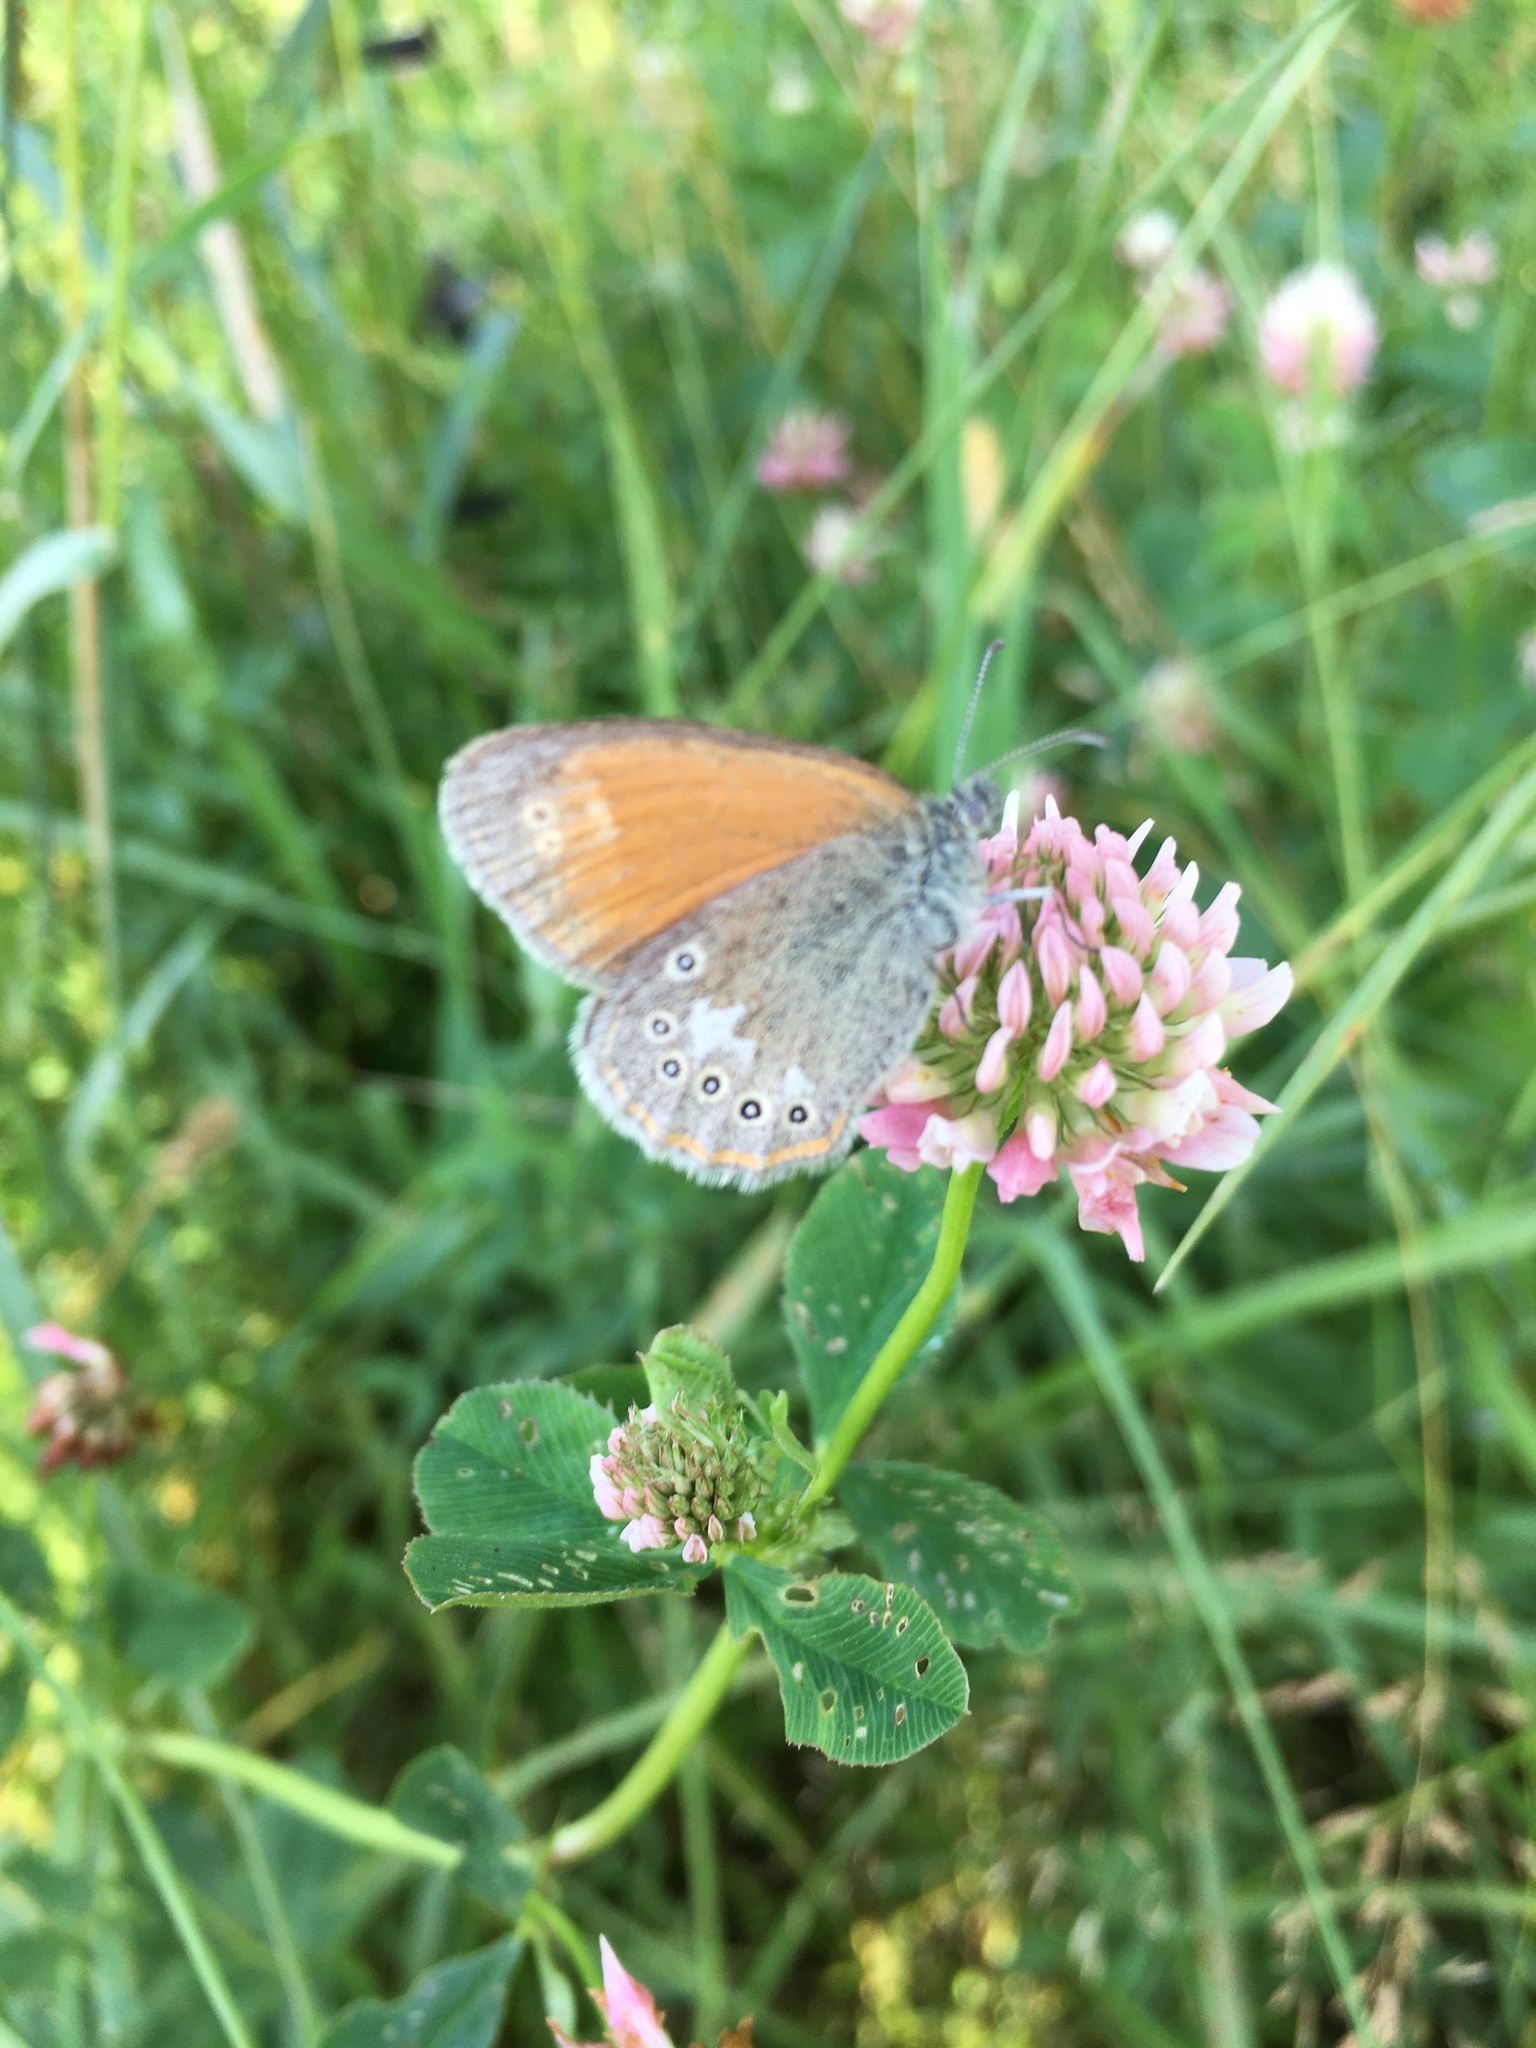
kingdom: Animalia
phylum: Arthropoda
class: Insecta
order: Lepidoptera
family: Nymphalidae
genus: Coenonympha
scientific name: Coenonympha iphis
